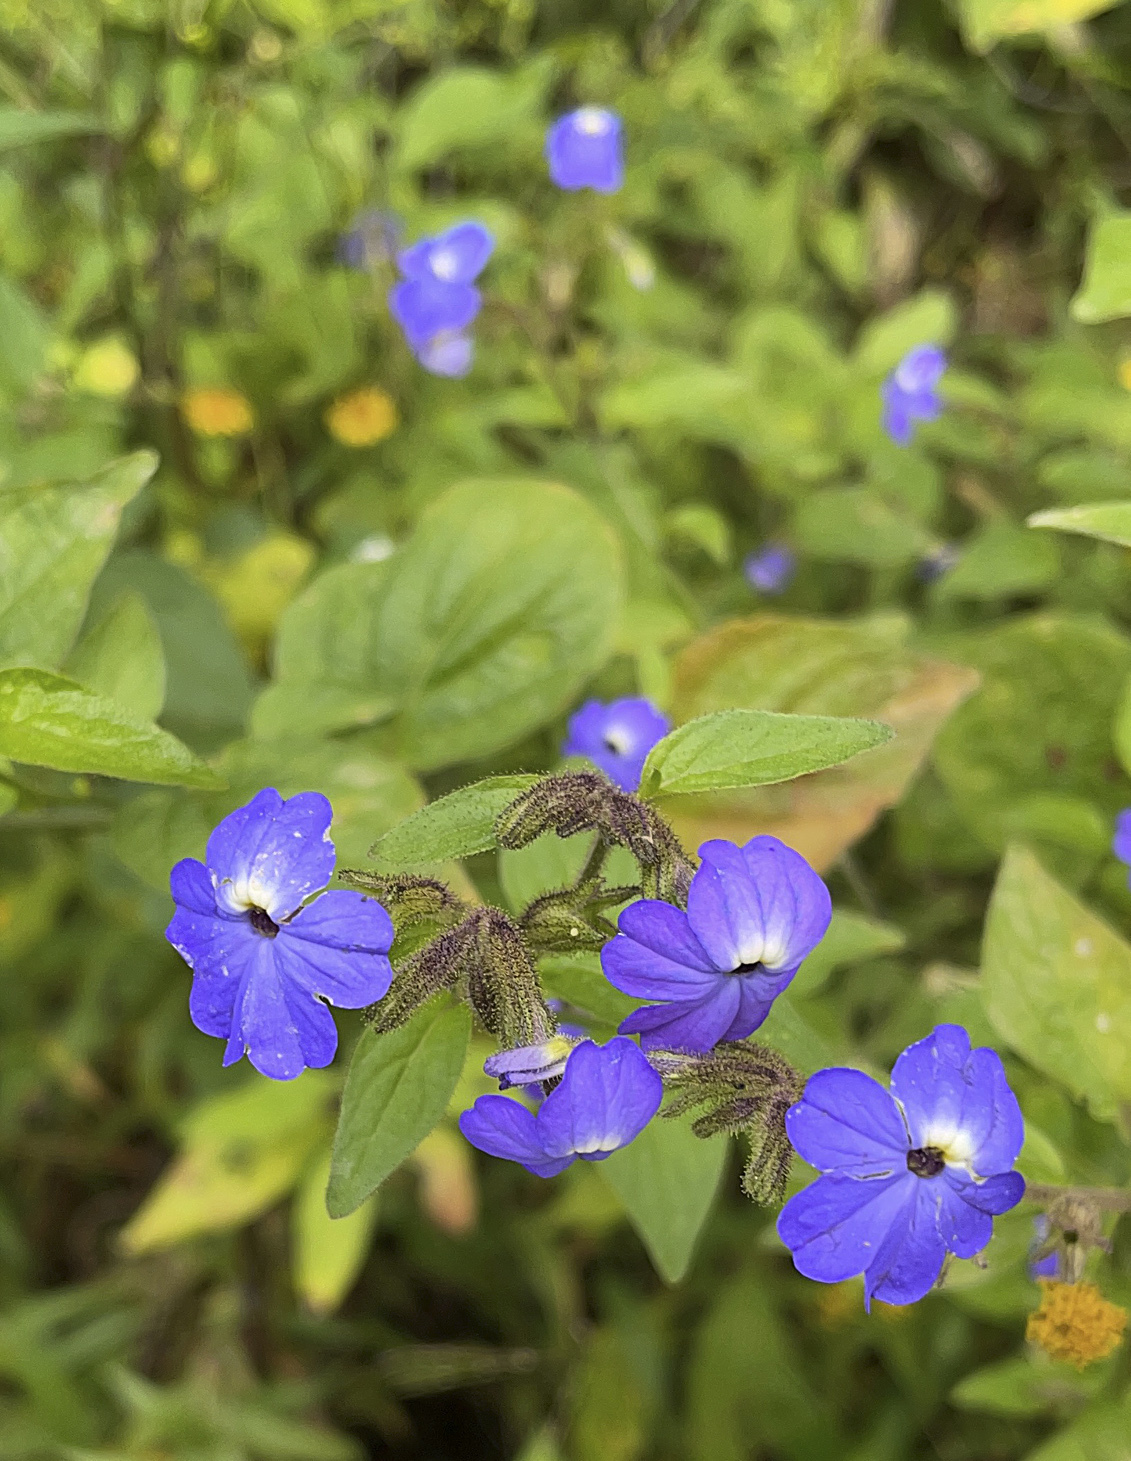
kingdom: Plantae
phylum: Tracheophyta
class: Magnoliopsida
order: Solanales
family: Solanaceae
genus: Browallia
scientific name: Browallia americana
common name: Jamaican forget-me-not
